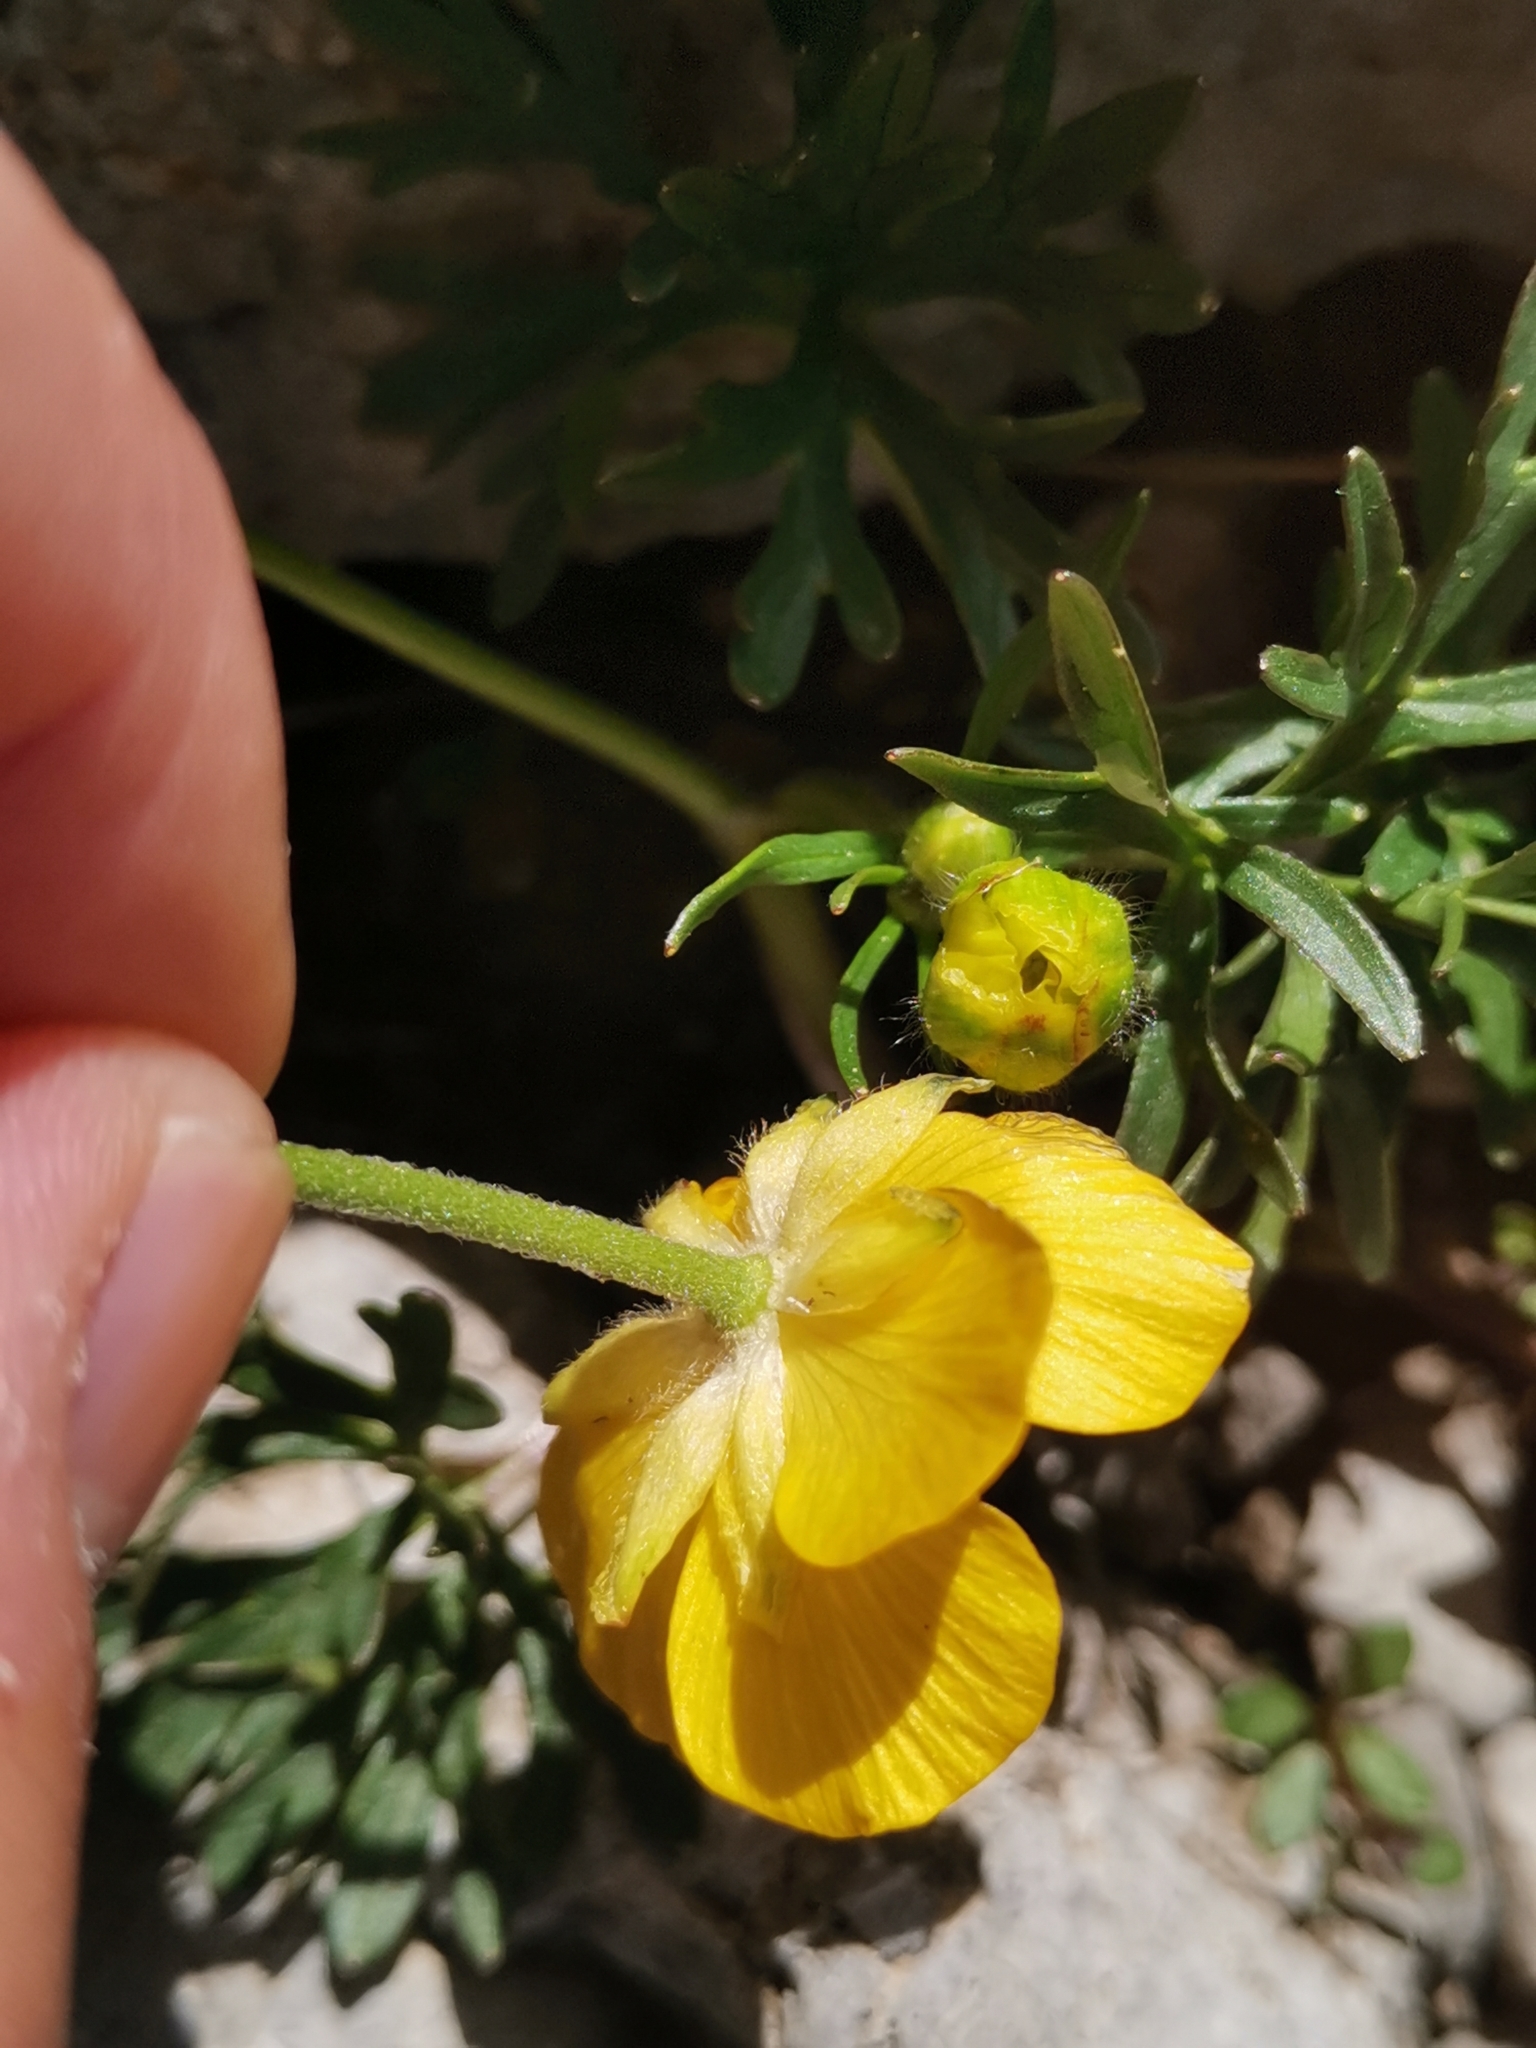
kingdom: Plantae
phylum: Tracheophyta
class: Magnoliopsida
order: Ranunculales
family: Ranunculaceae
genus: Ranunculus
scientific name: Ranunculus carinthiacus
